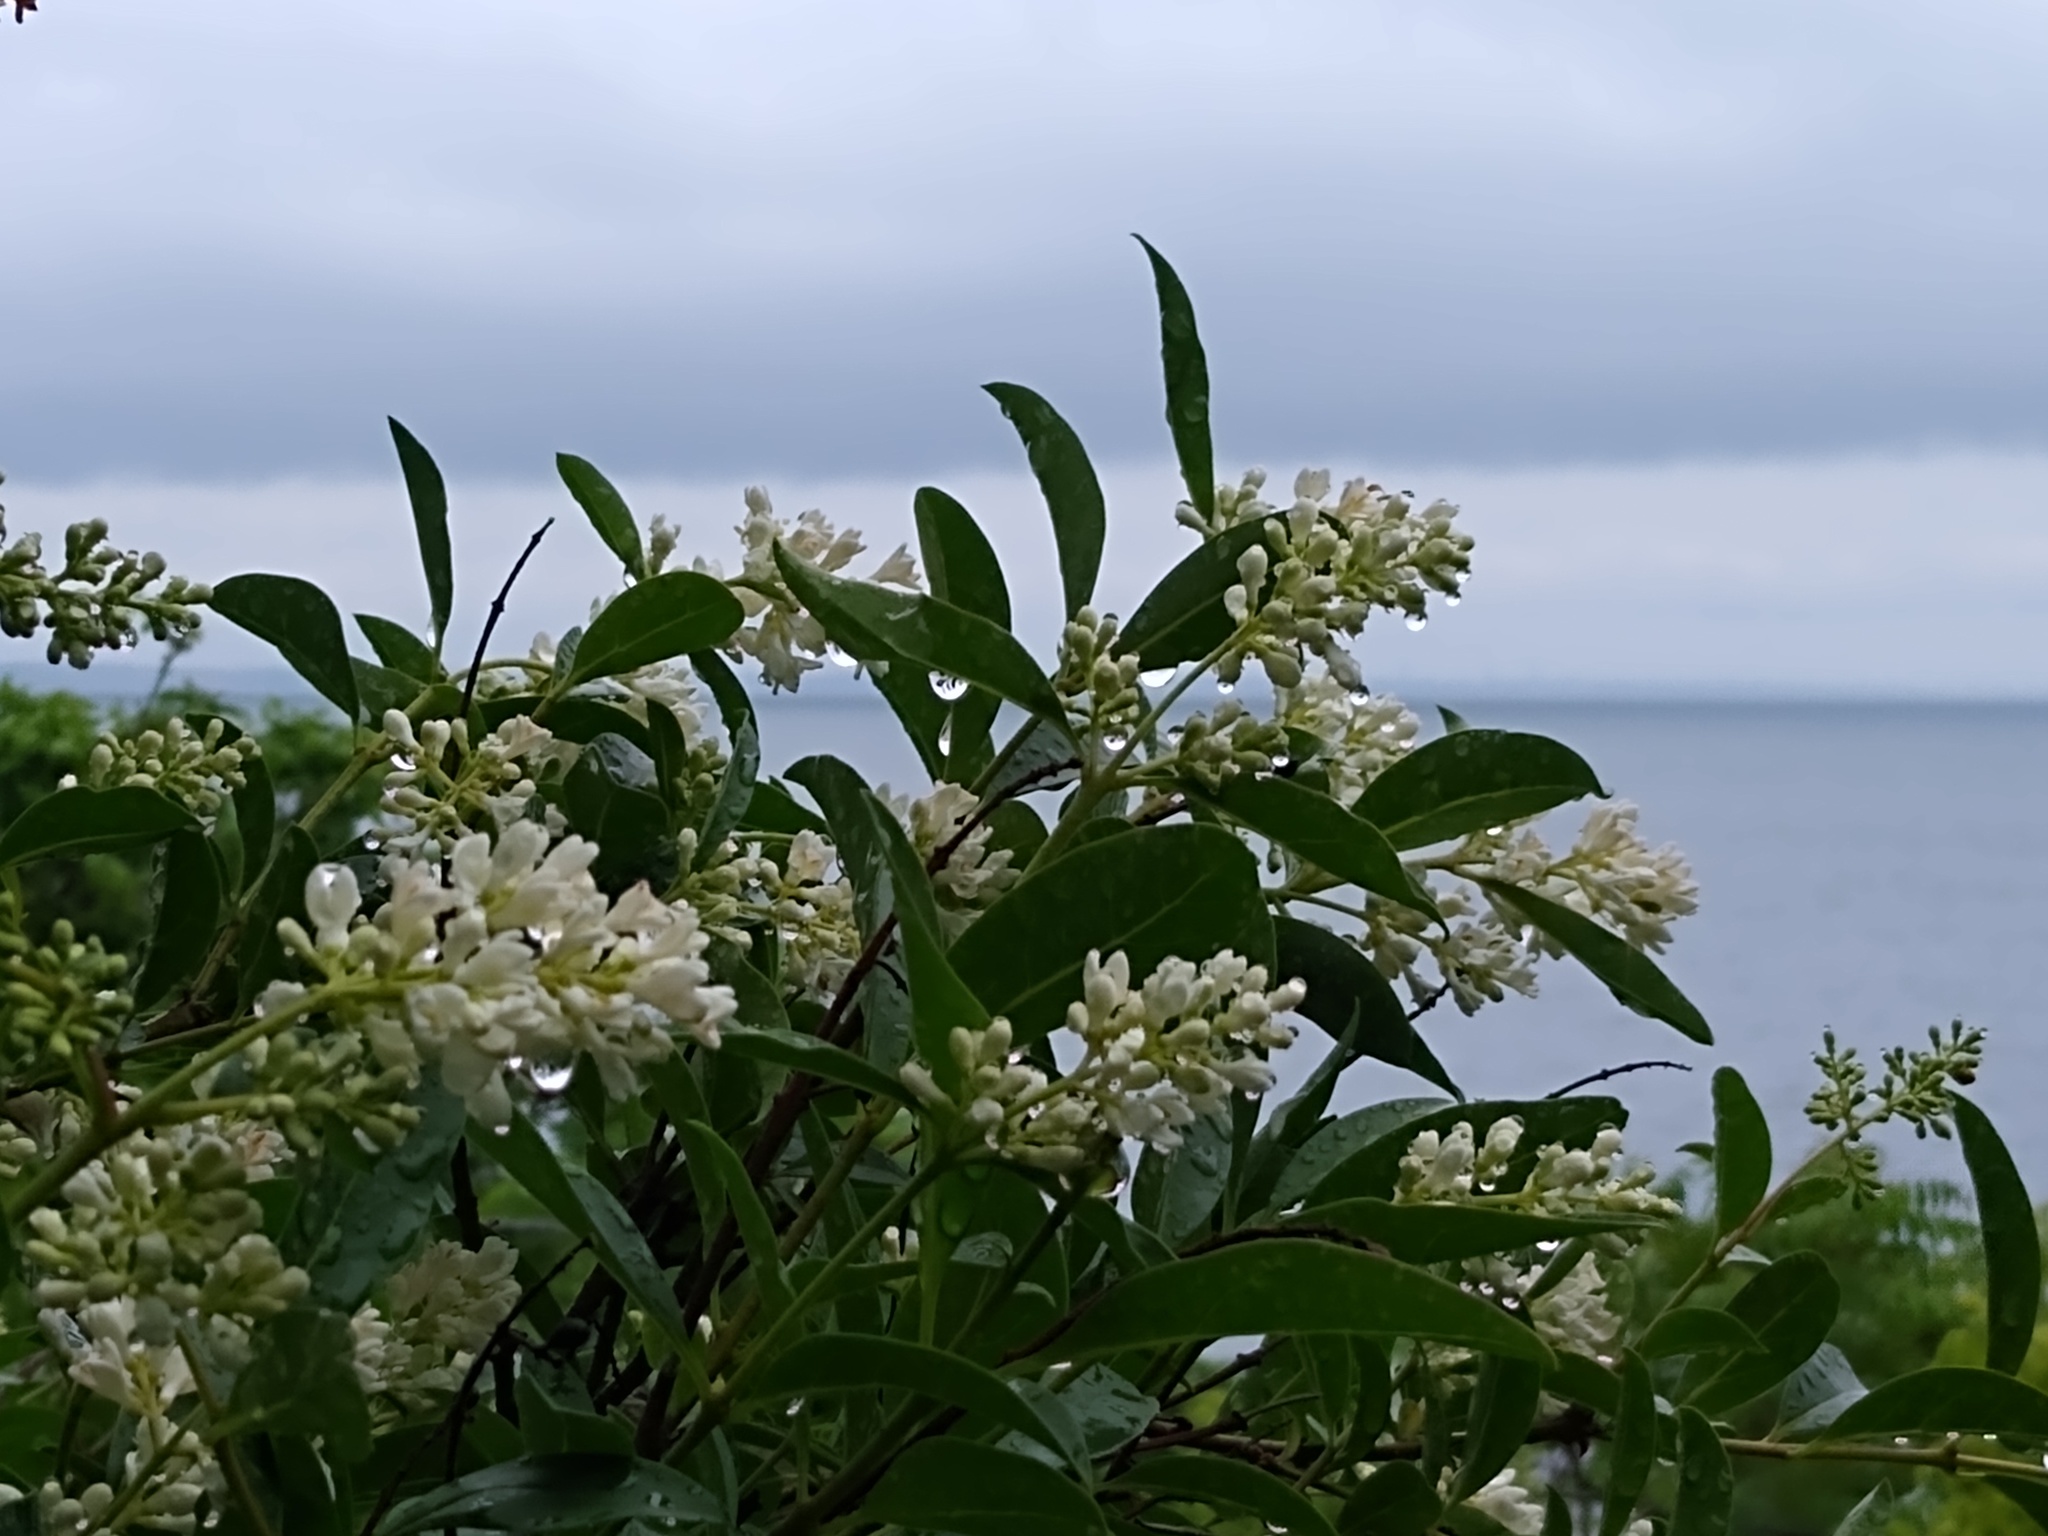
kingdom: Plantae
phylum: Tracheophyta
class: Magnoliopsida
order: Lamiales
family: Oleaceae
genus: Ligustrum
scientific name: Ligustrum vulgare
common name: Wild privet
